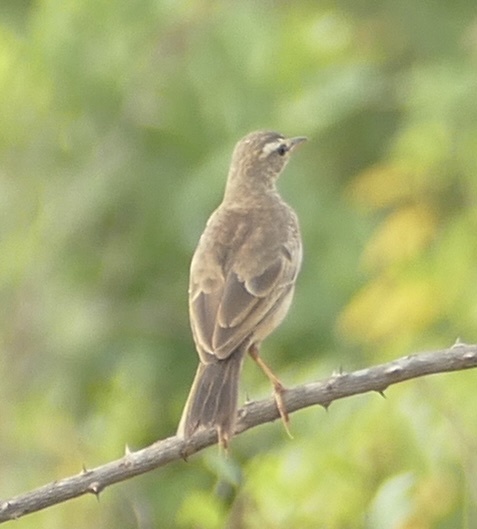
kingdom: Animalia
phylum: Chordata
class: Aves
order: Passeriformes
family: Motacillidae
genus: Anthus
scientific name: Anthus leucophrys
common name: Plain-backed pipit
